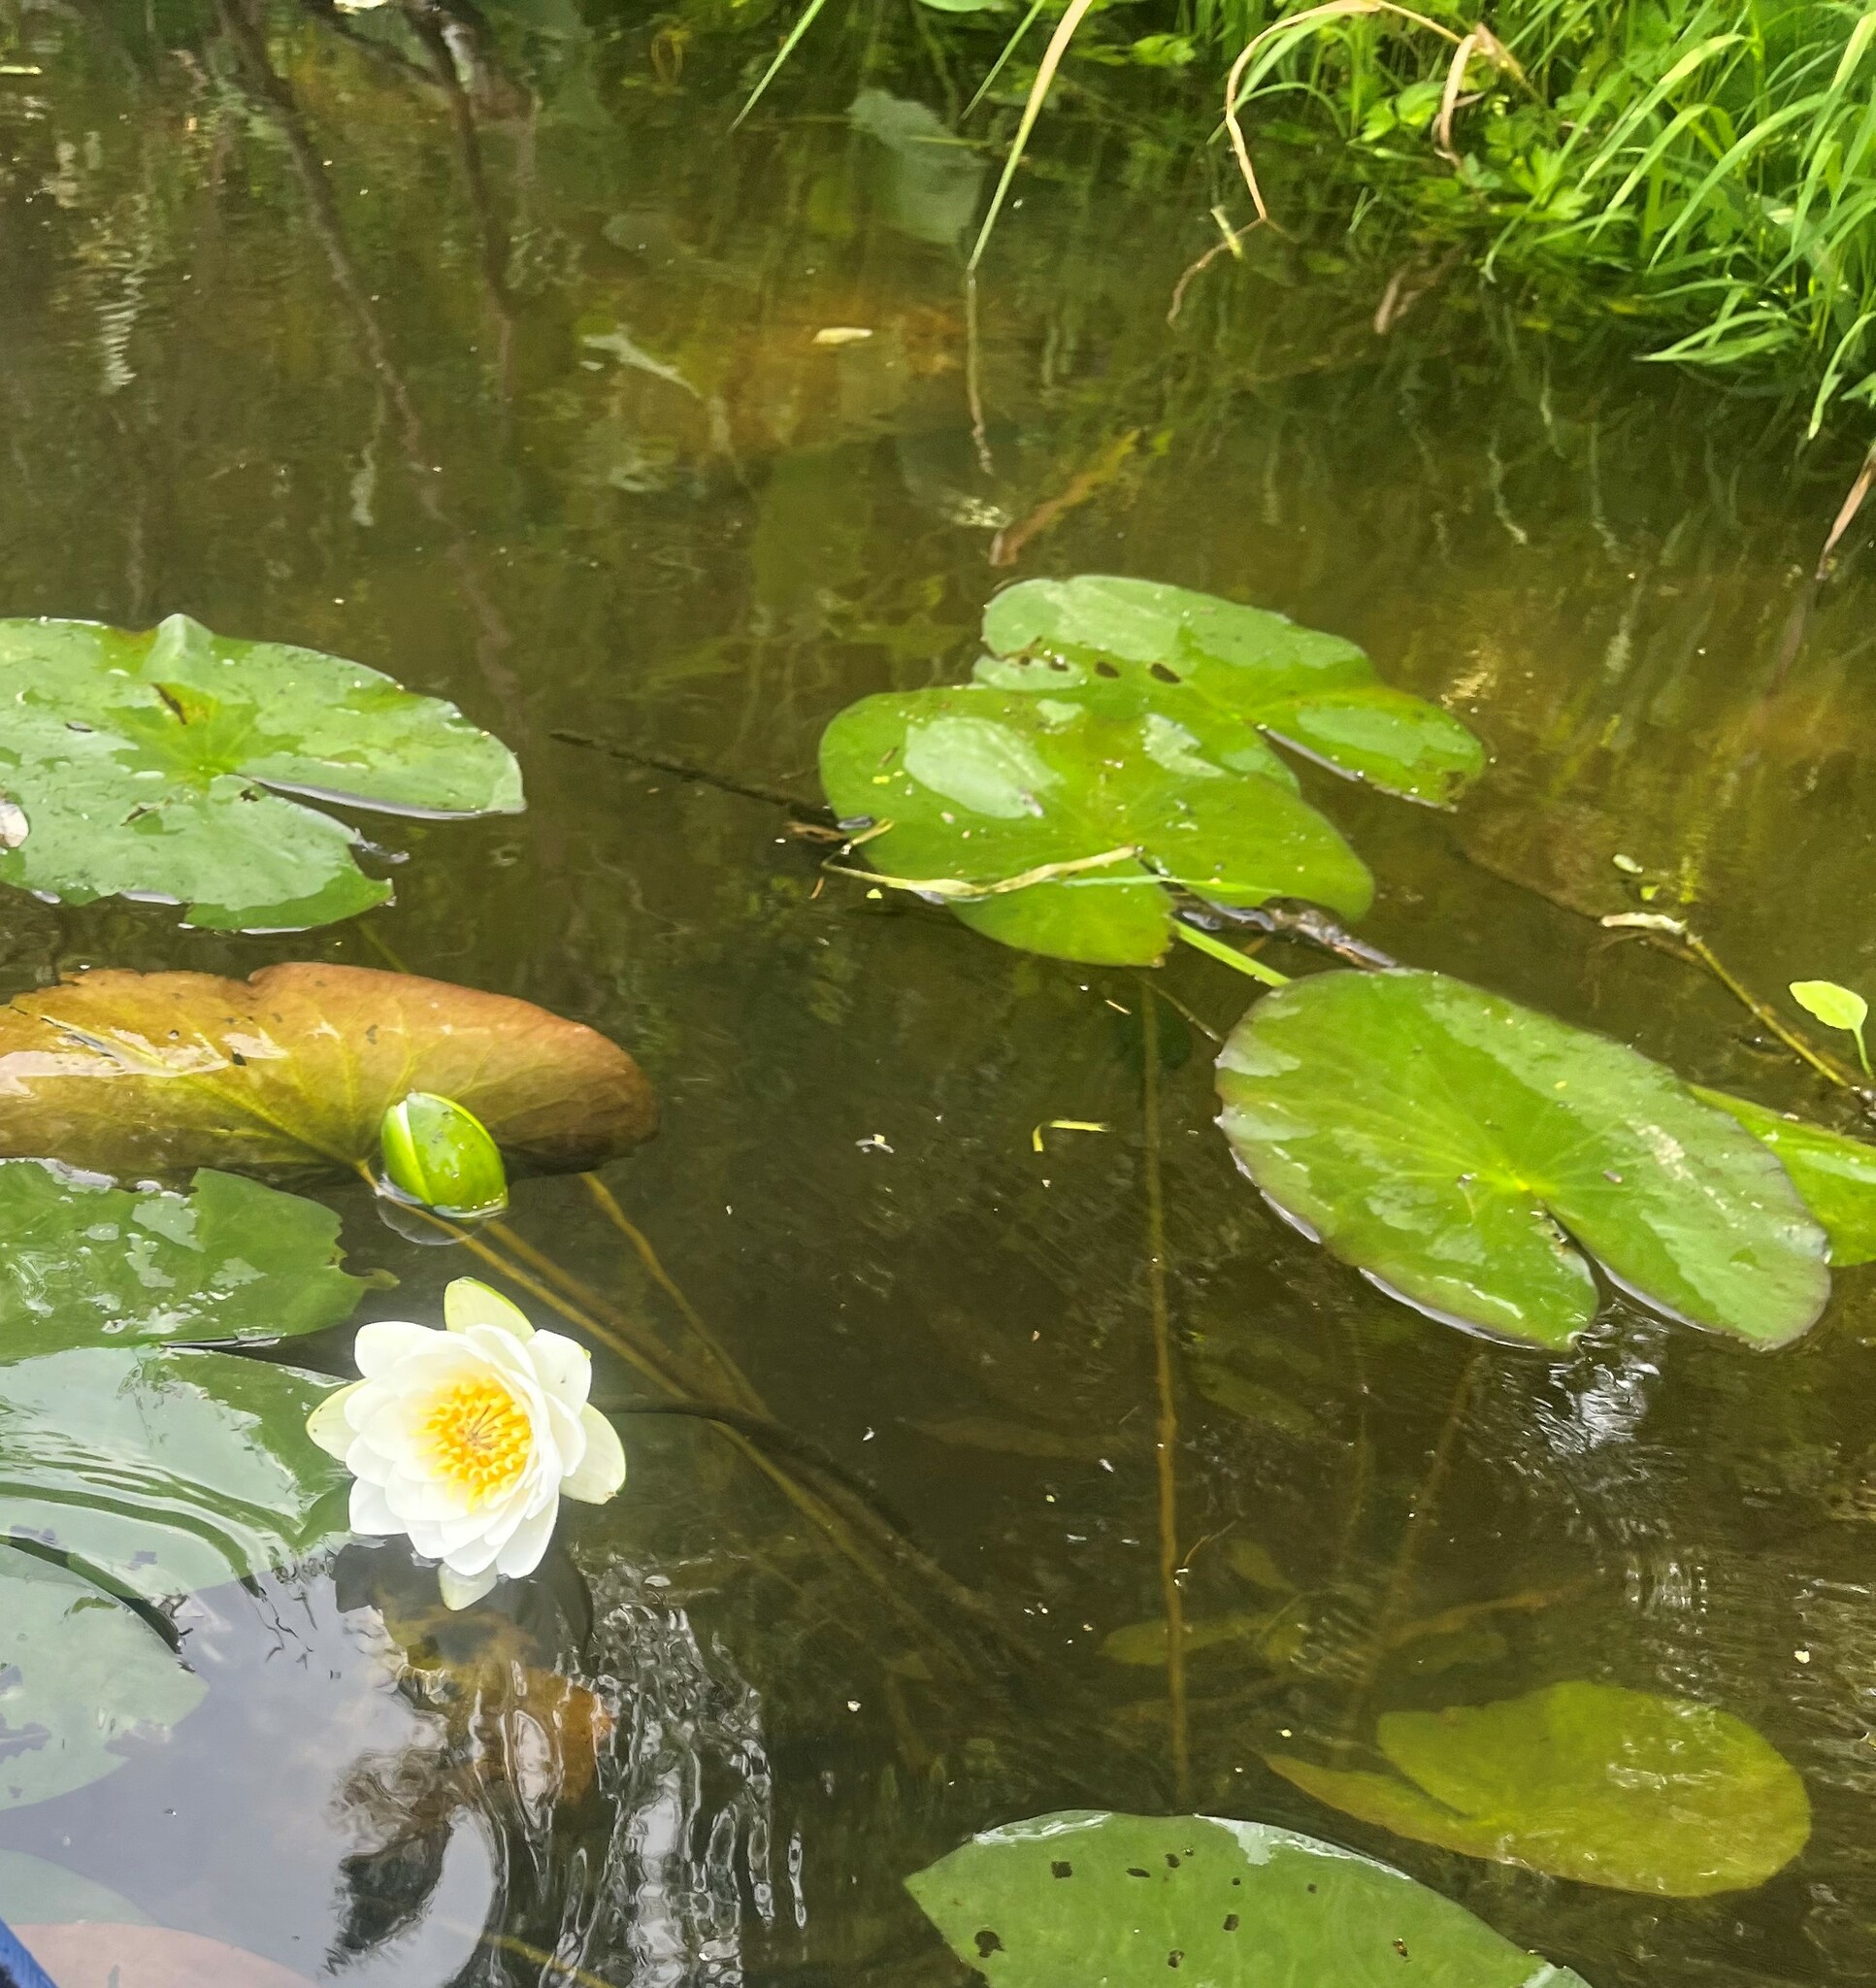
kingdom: Plantae
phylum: Tracheophyta
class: Magnoliopsida
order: Nymphaeales
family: Nymphaeaceae
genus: Nymphaea
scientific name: Nymphaea candida
